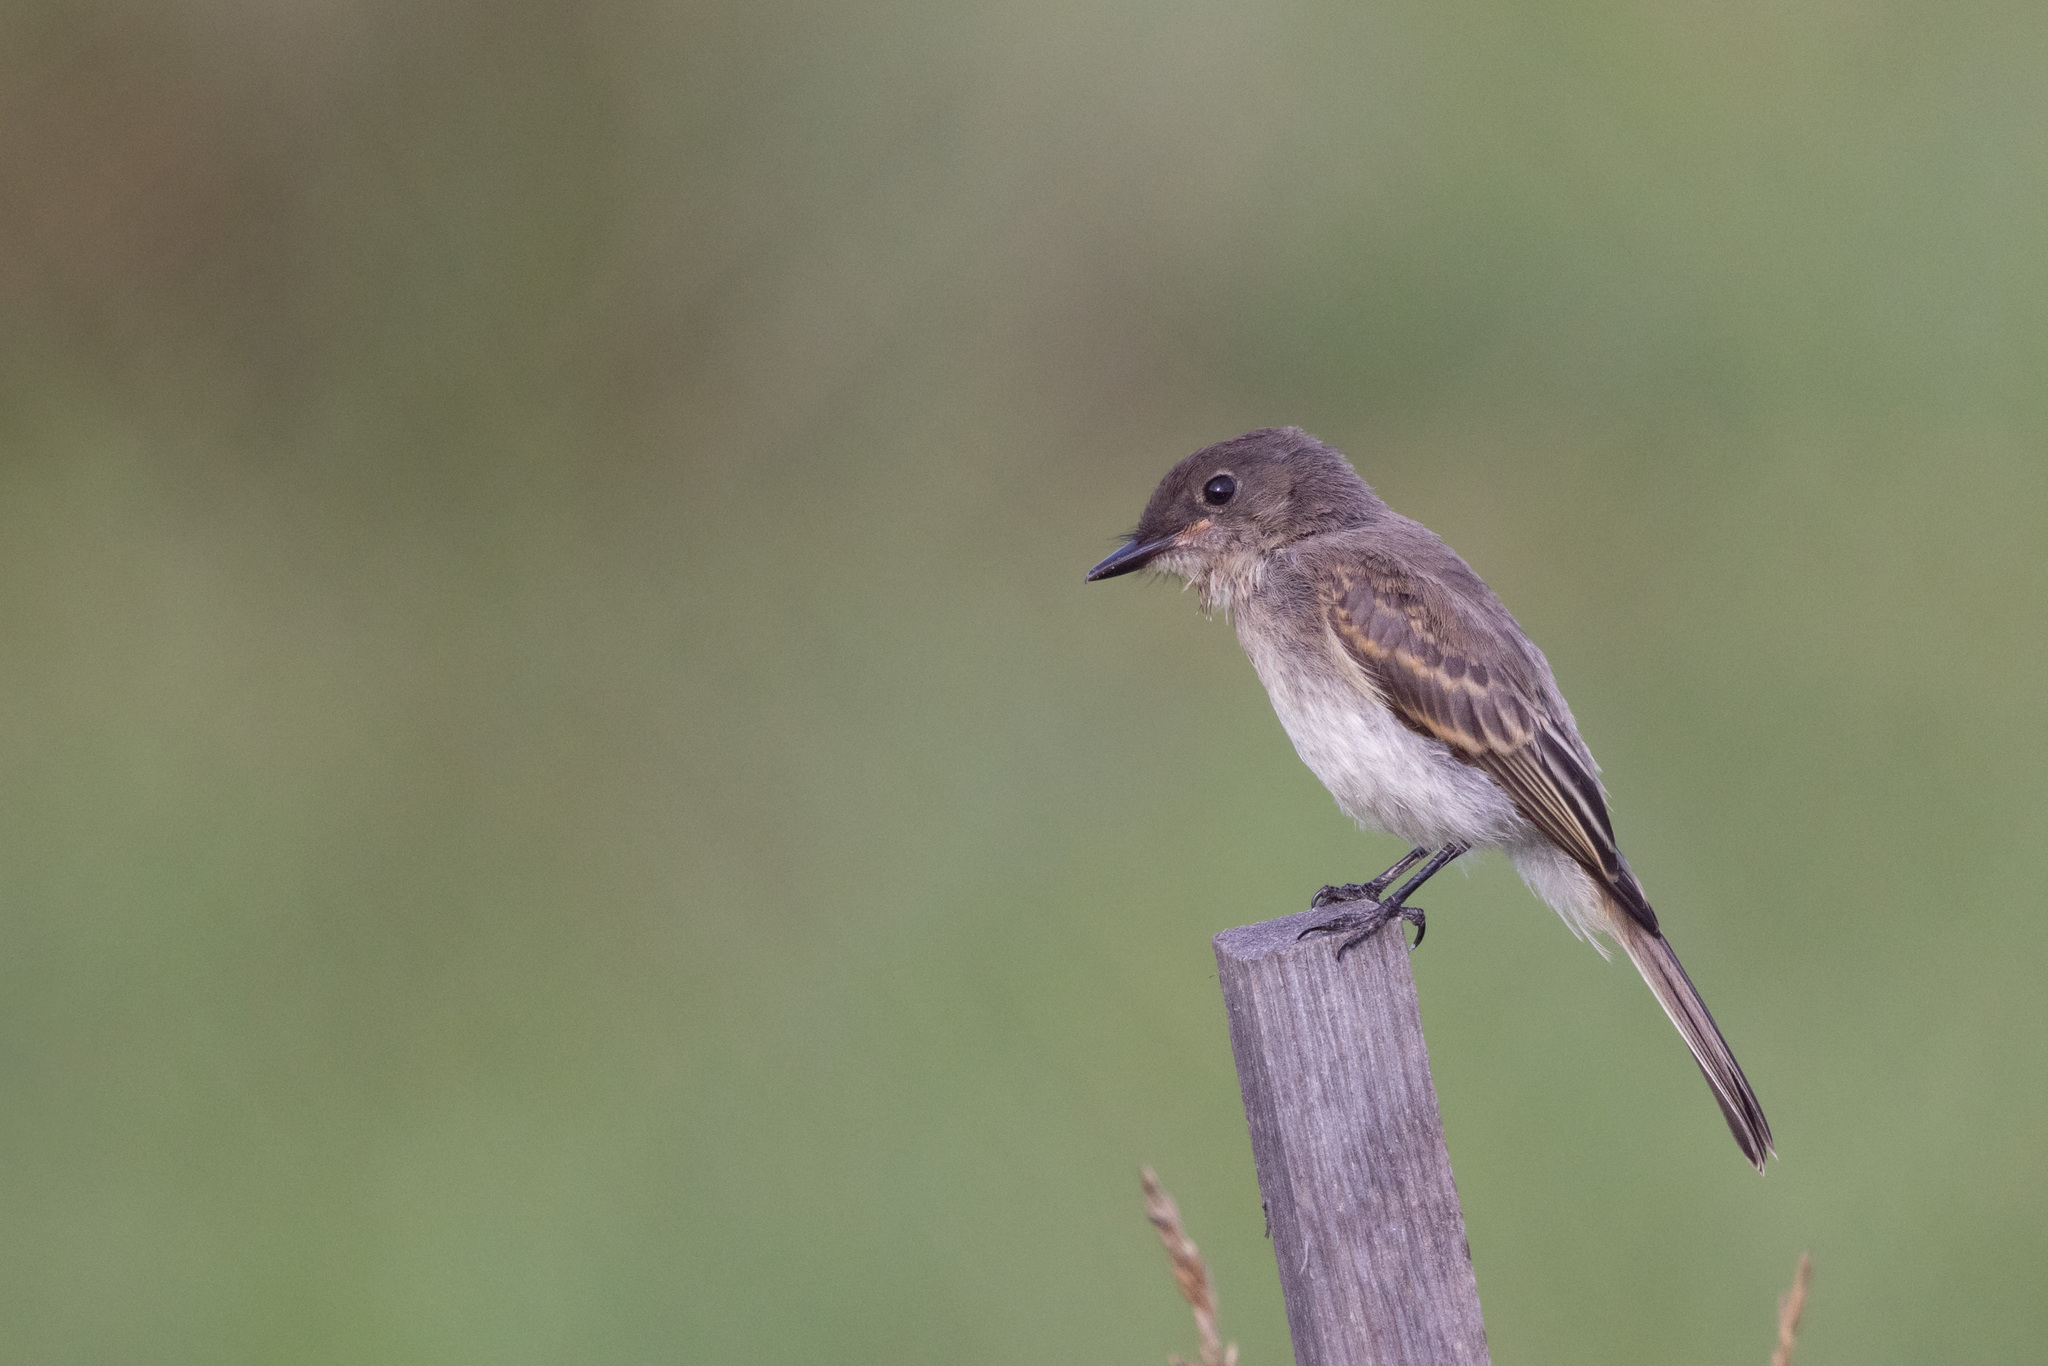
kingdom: Animalia
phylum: Chordata
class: Aves
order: Passeriformes
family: Tyrannidae
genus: Sayornis
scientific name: Sayornis phoebe
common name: Eastern phoebe
